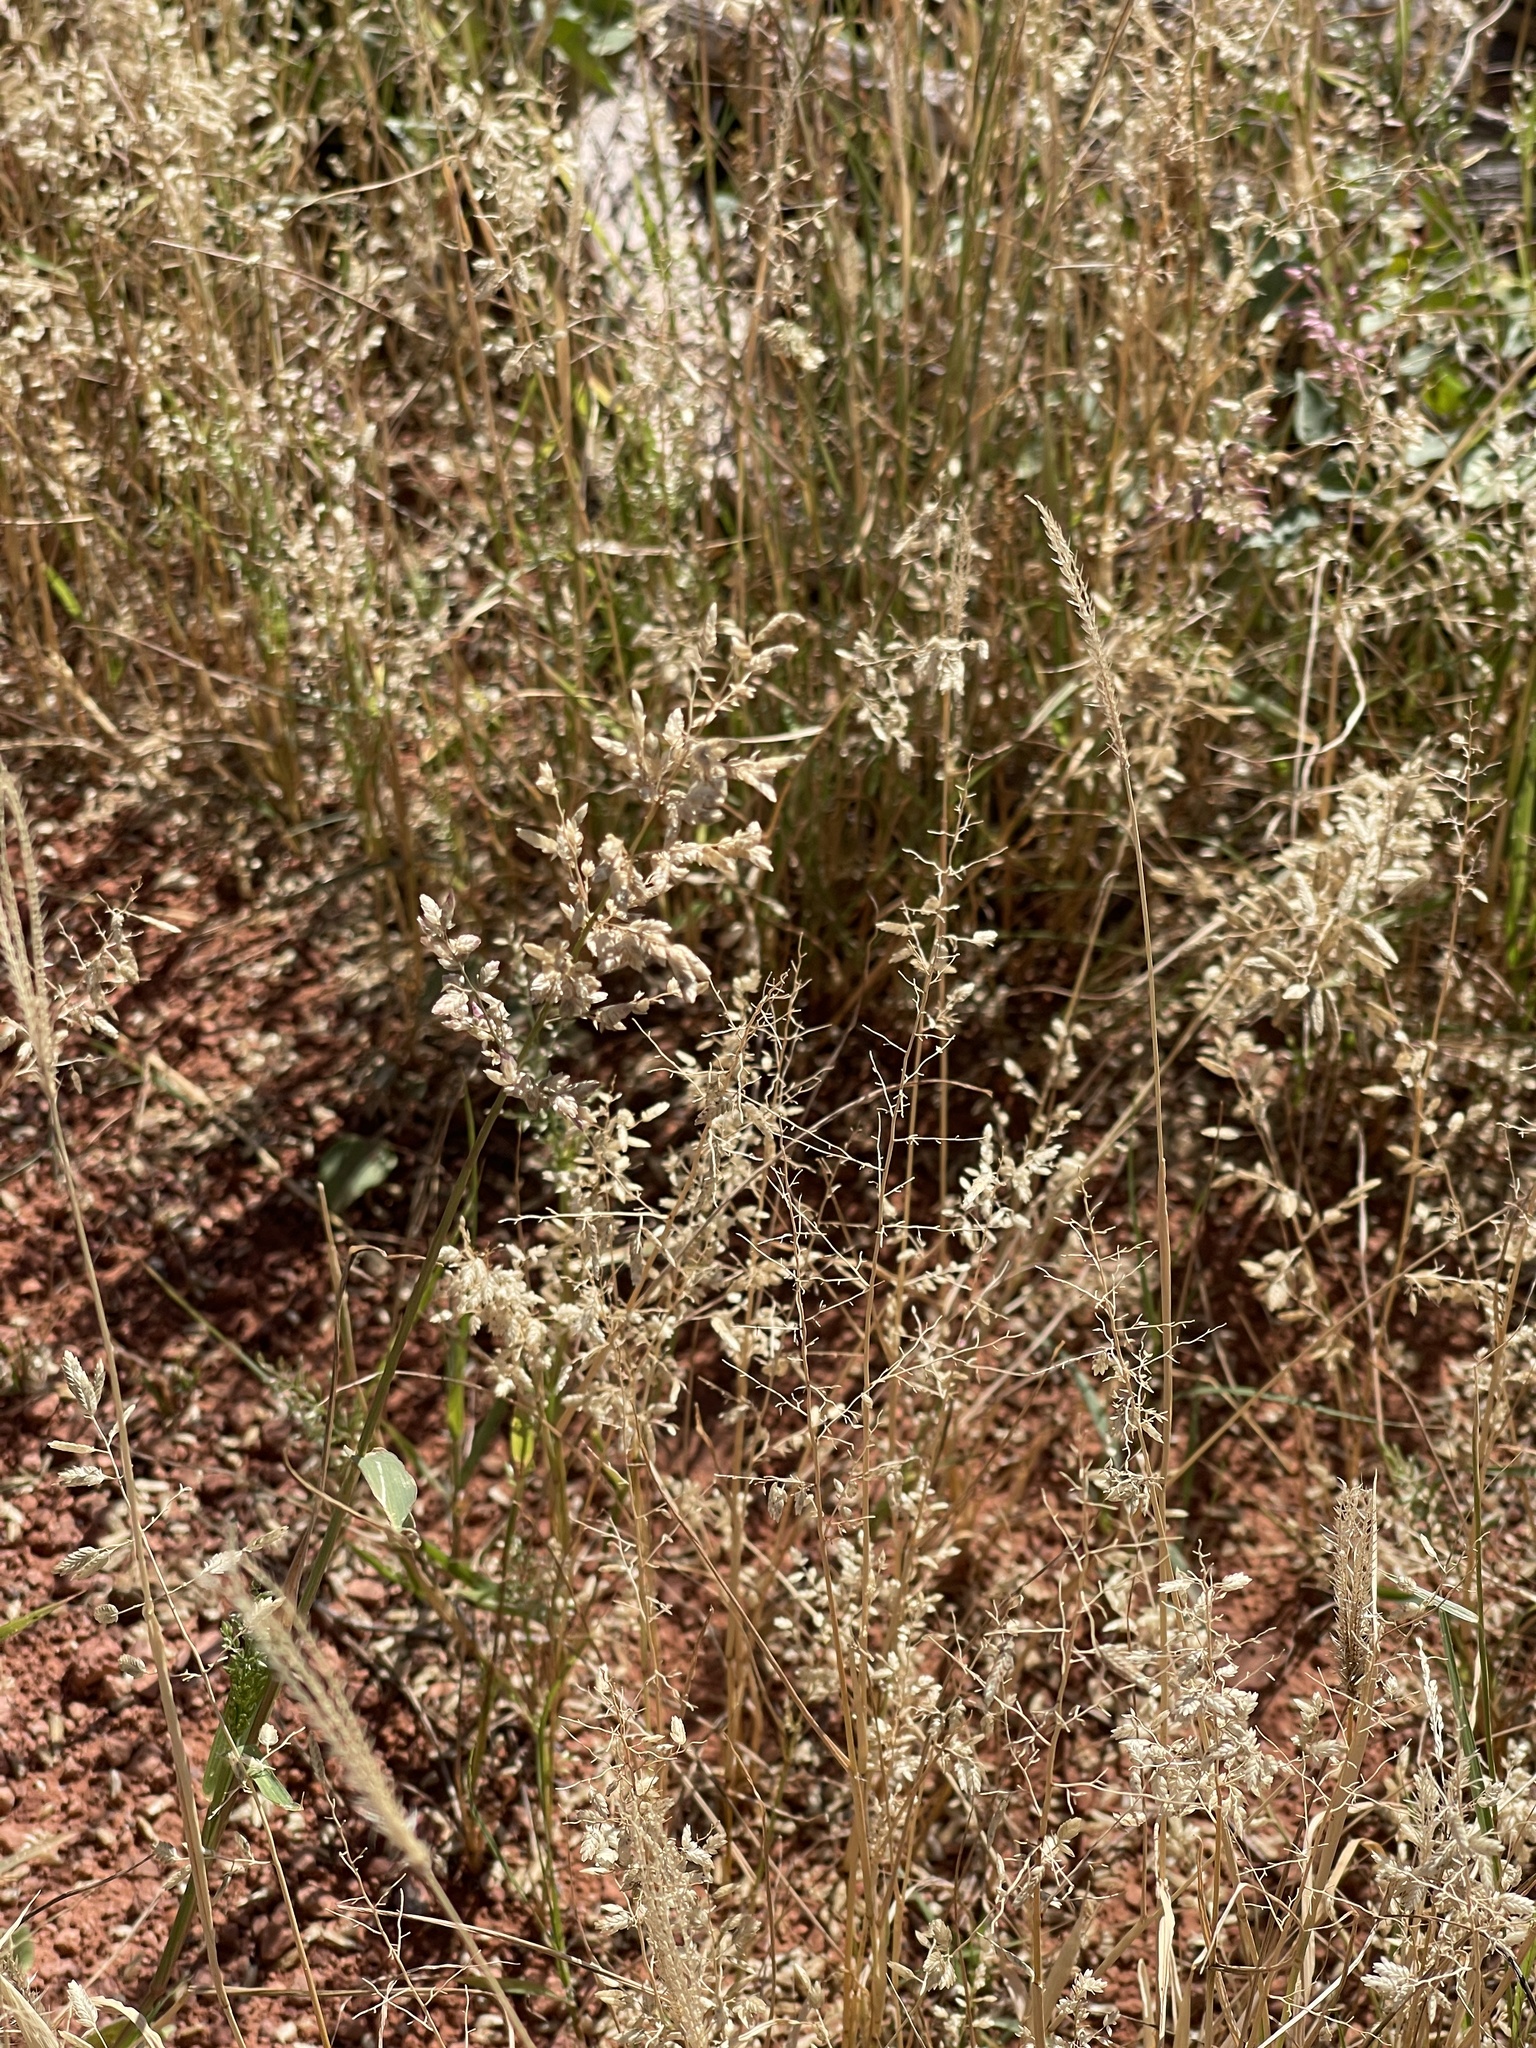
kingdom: Plantae
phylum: Tracheophyta
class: Liliopsida
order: Poales
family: Poaceae
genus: Eragrostis
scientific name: Eragrostis cilianensis
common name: Stinkgrass
